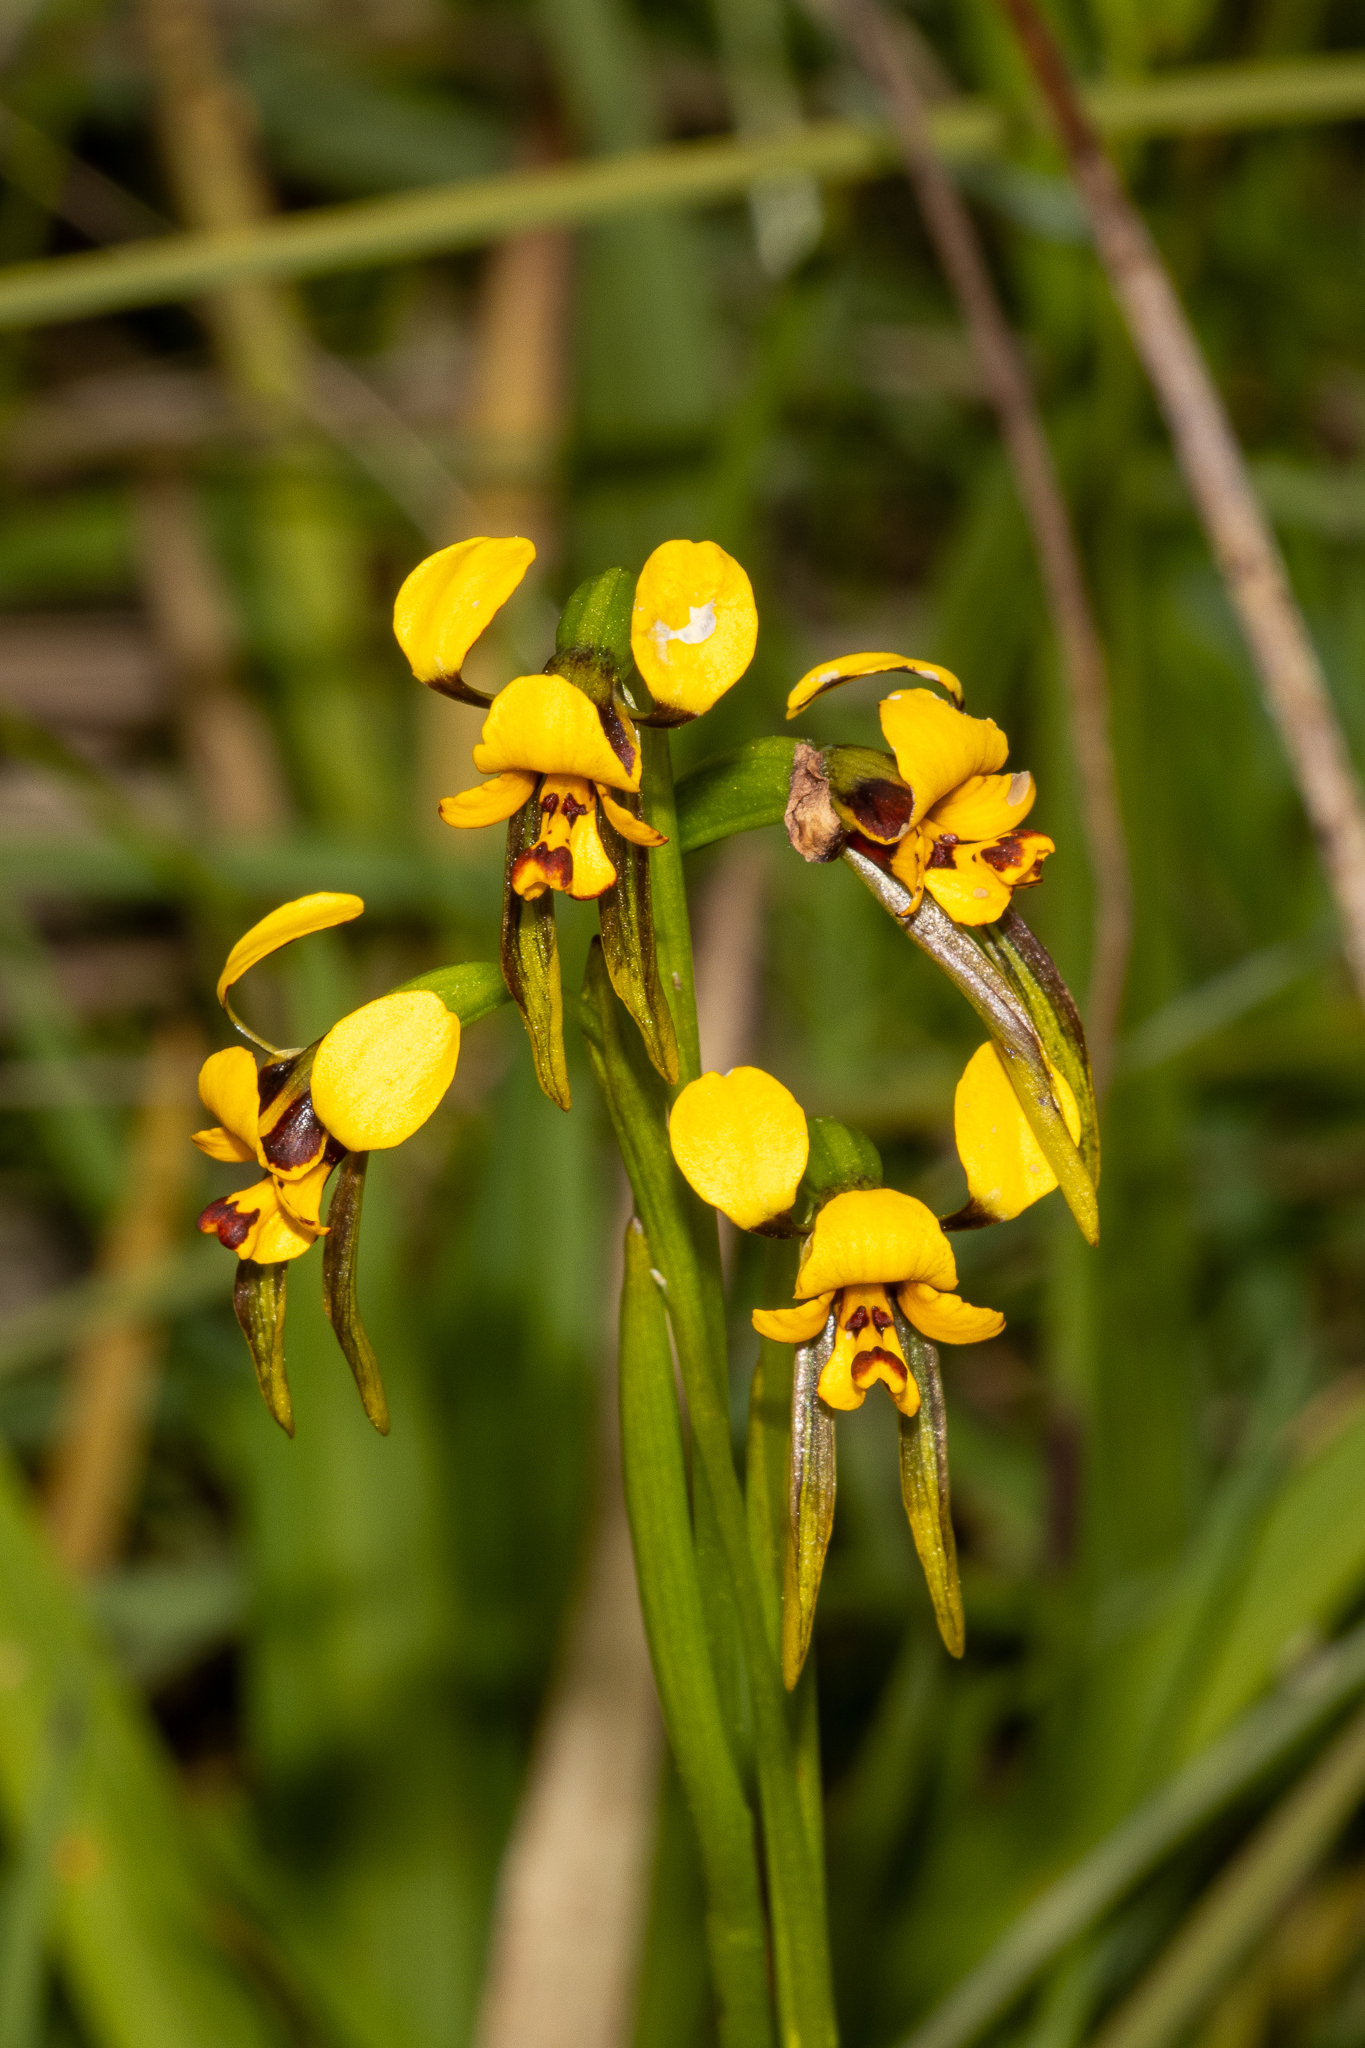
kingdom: Plantae
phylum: Tracheophyta
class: Liliopsida
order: Asparagales
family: Orchidaceae
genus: Diuris
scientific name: Diuris palustris
